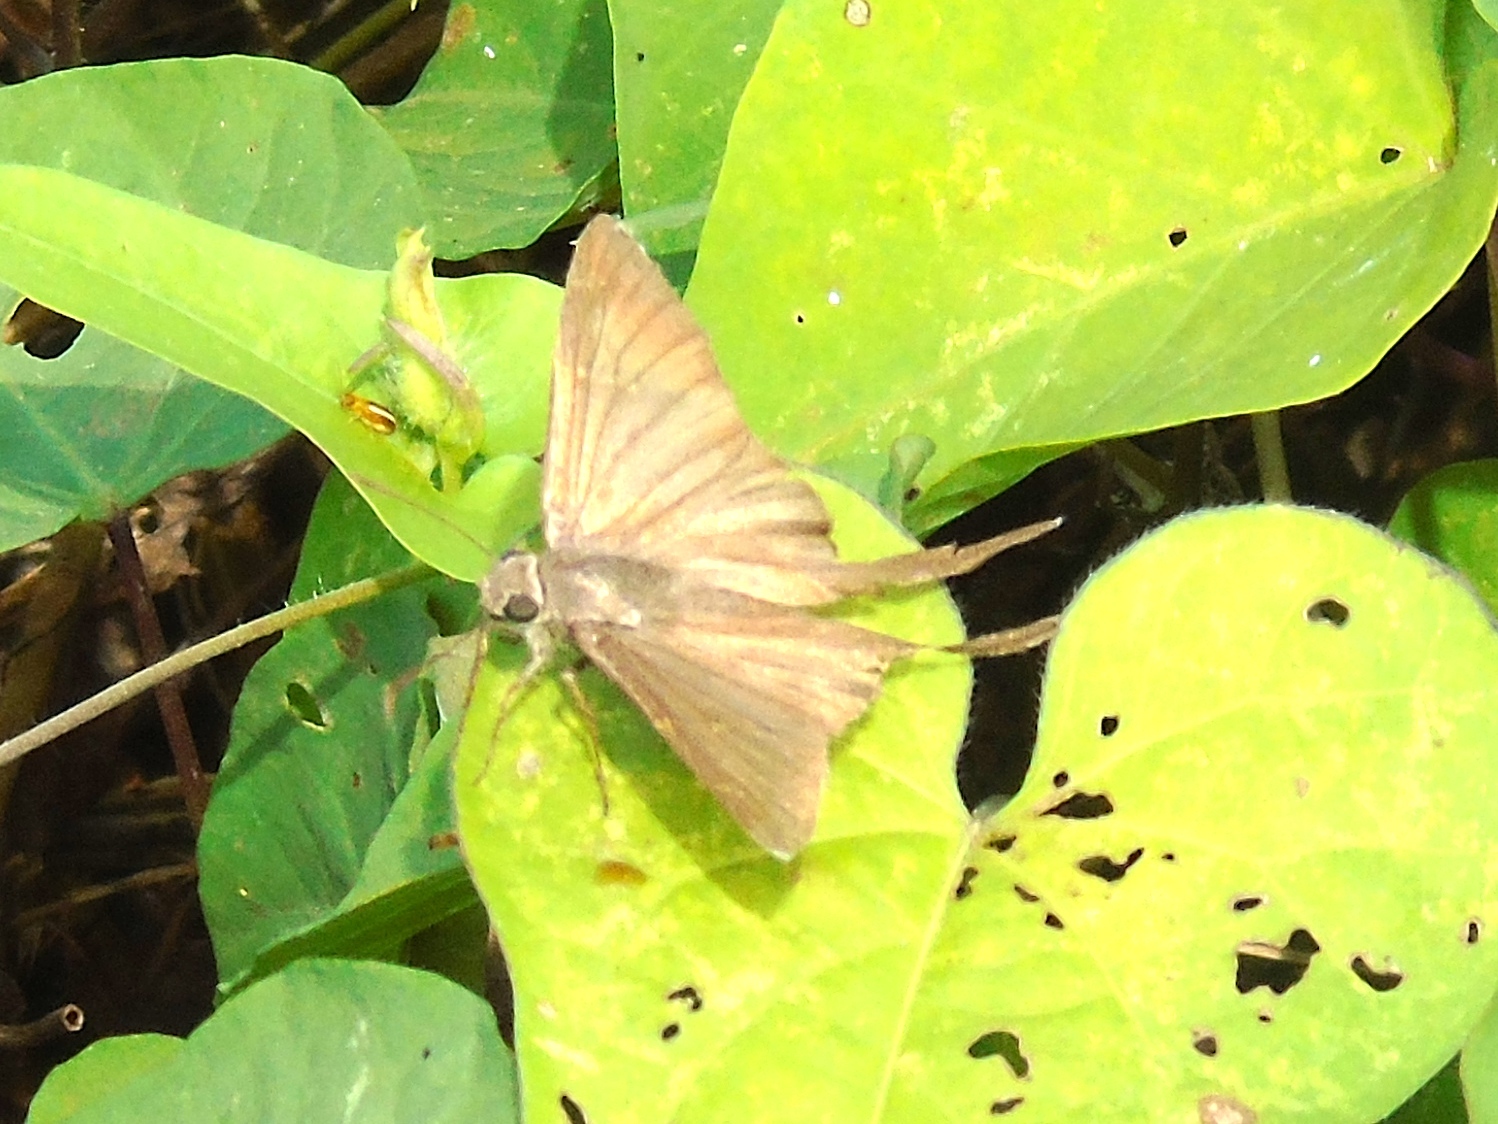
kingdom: Animalia
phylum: Arthropoda
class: Insecta
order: Lepidoptera
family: Hesperiidae
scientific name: Hesperiidae
